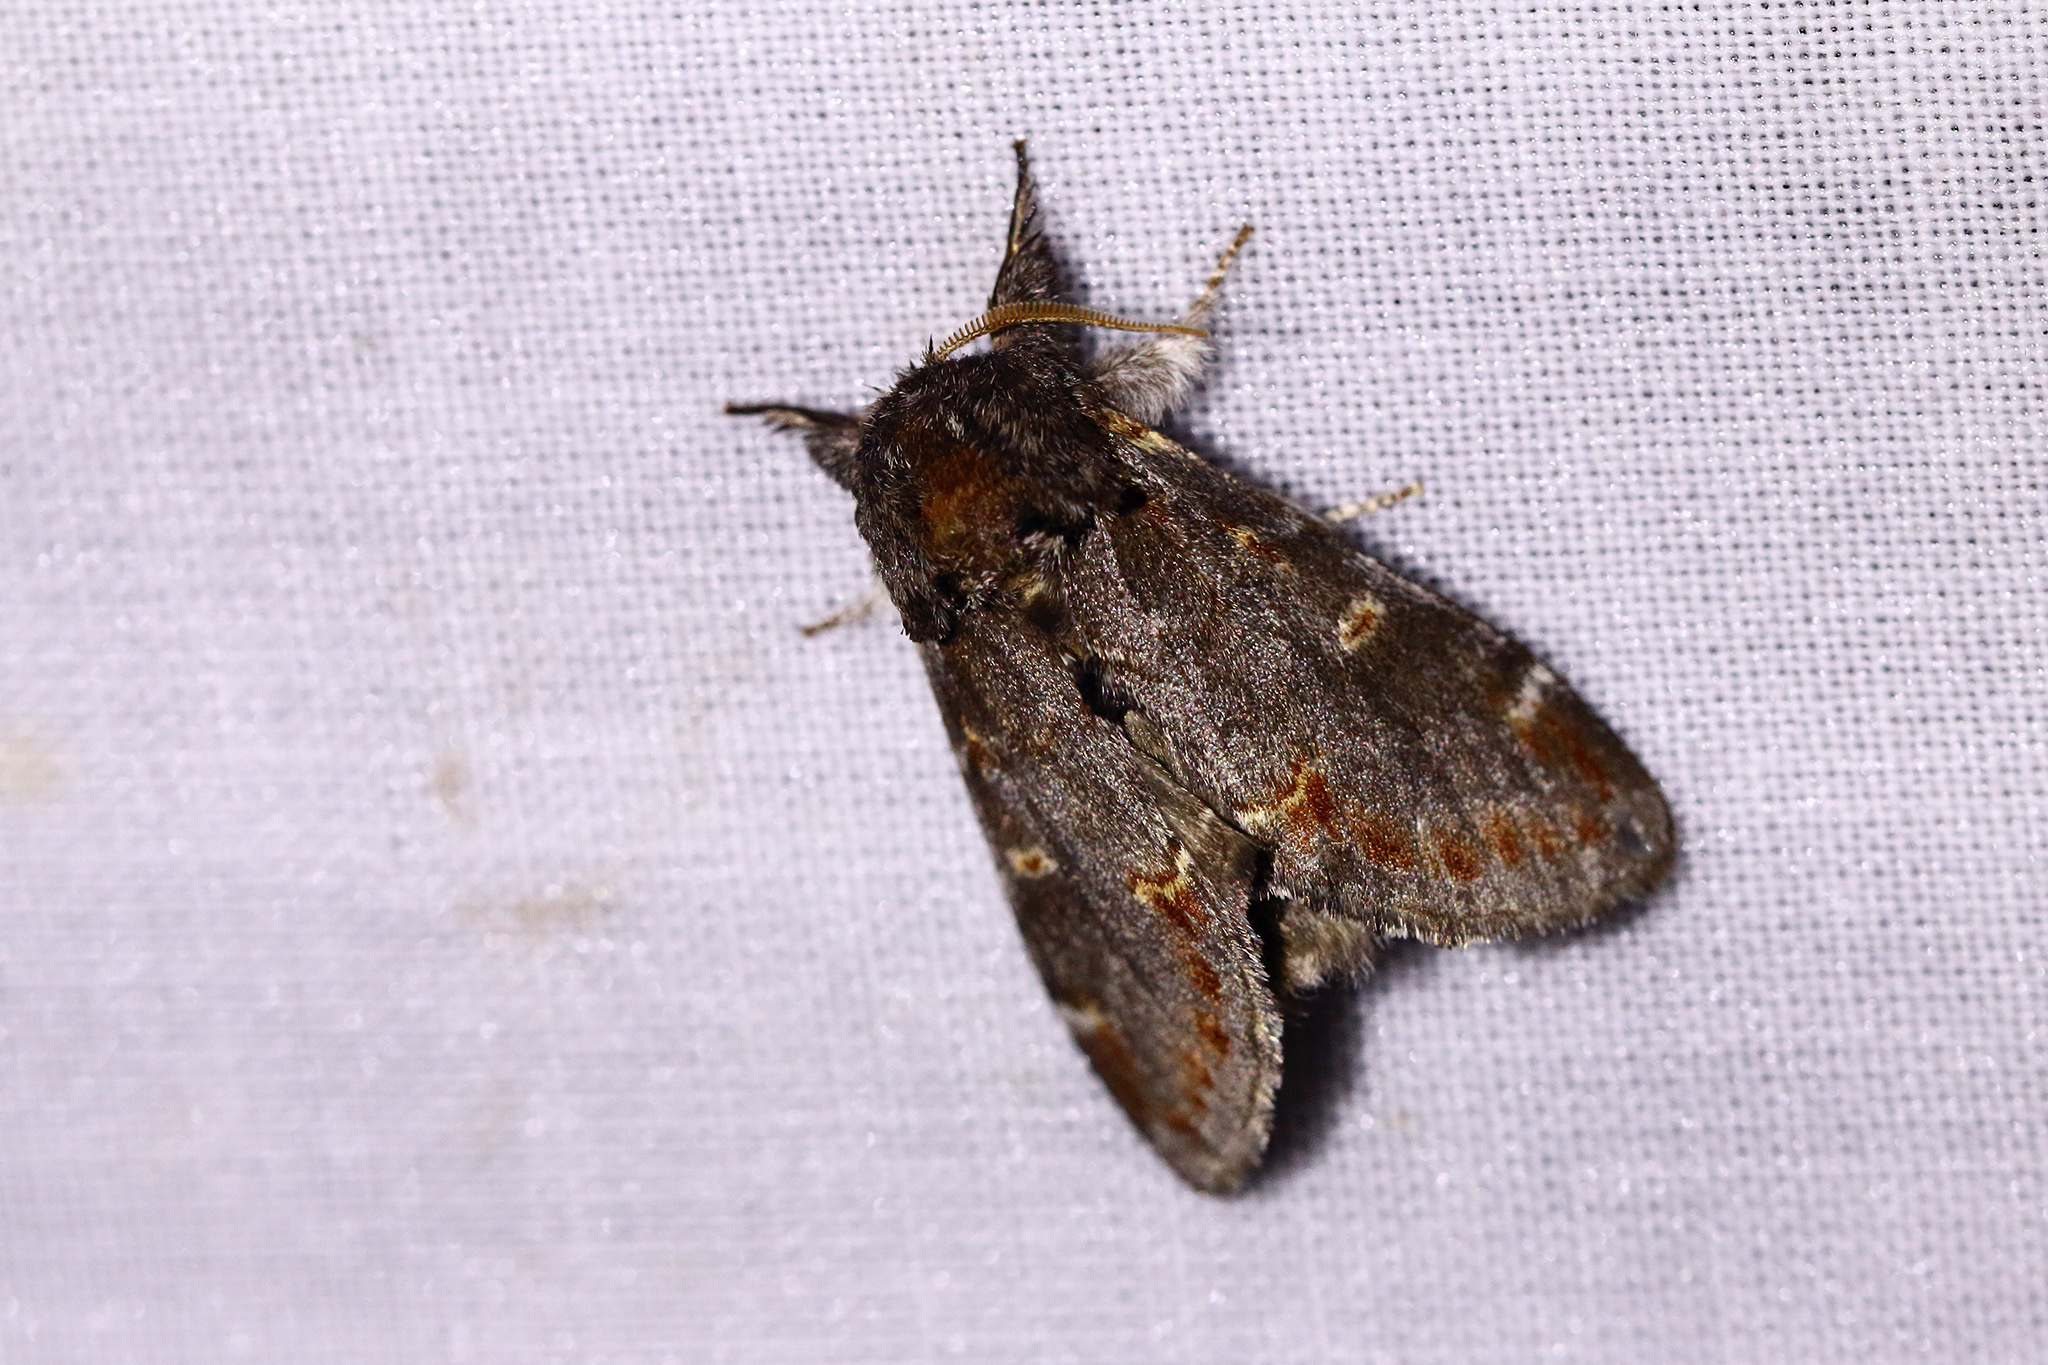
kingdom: Animalia
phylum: Arthropoda
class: Insecta
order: Lepidoptera
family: Notodontidae
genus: Notodonta
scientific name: Notodonta dromedarius
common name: Iron prominent
